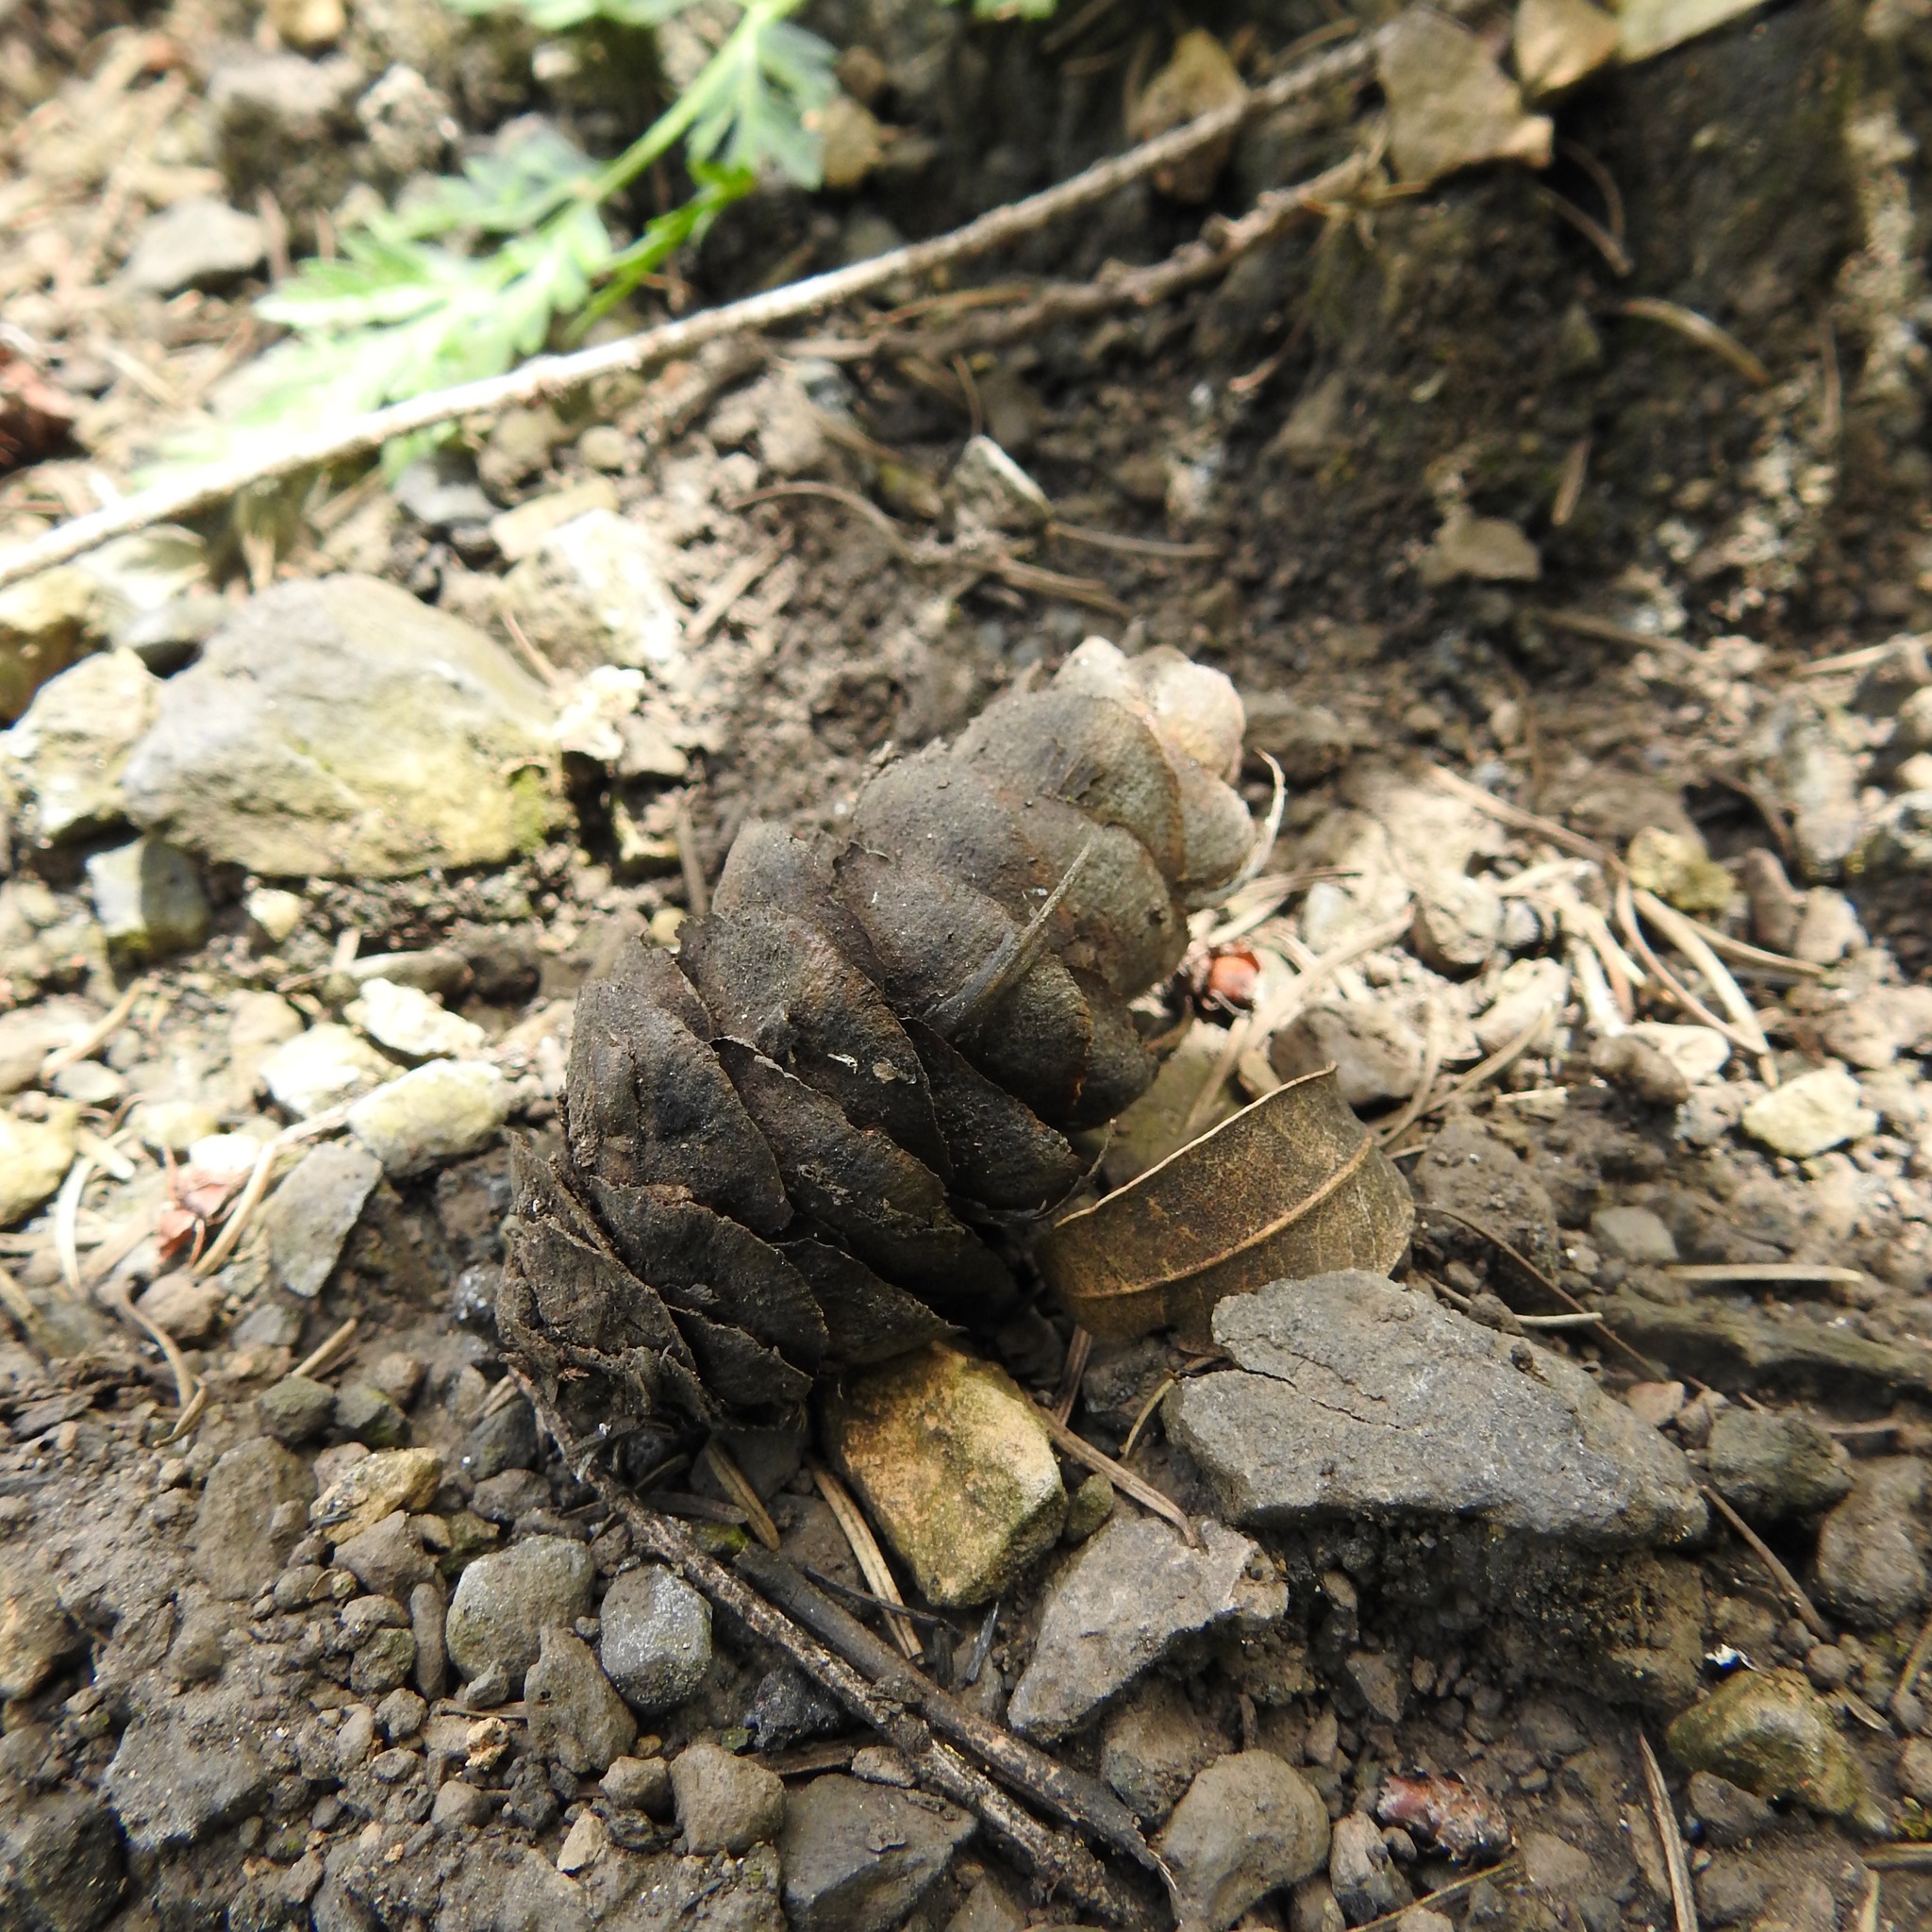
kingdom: Plantae
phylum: Tracheophyta
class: Pinopsida
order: Pinales
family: Pinaceae
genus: Pseudotsuga
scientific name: Pseudotsuga menziesii
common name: Douglas fir
